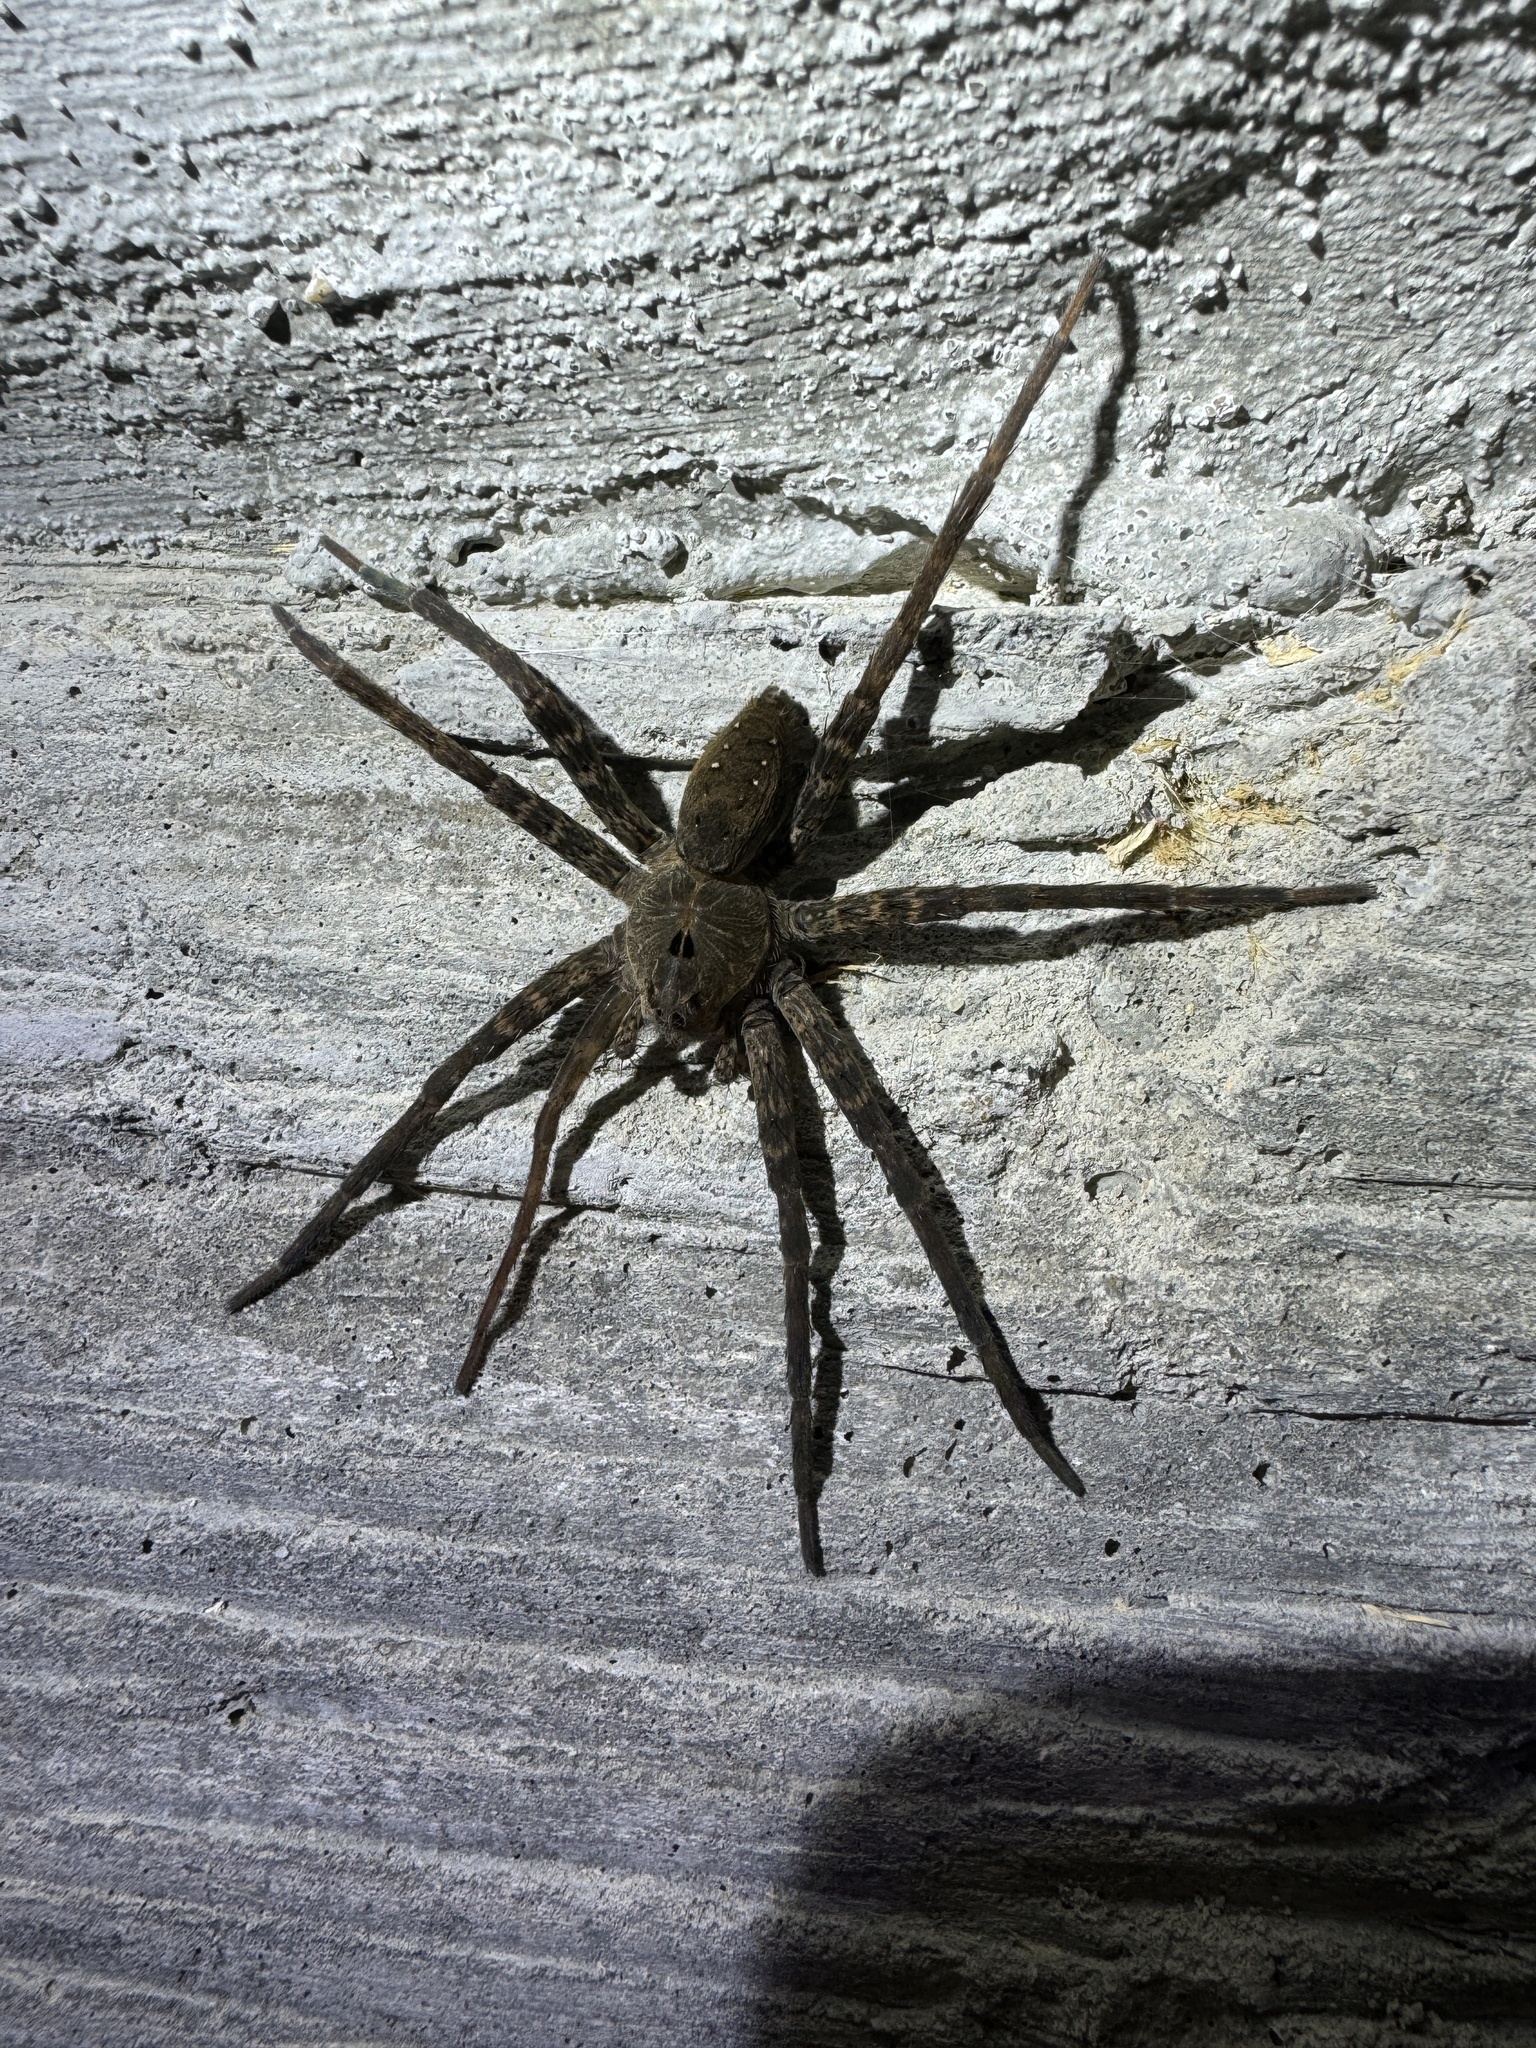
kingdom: Animalia
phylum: Arthropoda
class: Arachnida
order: Araneae
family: Pisauridae
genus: Dolomedes
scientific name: Dolomedes vittatus
